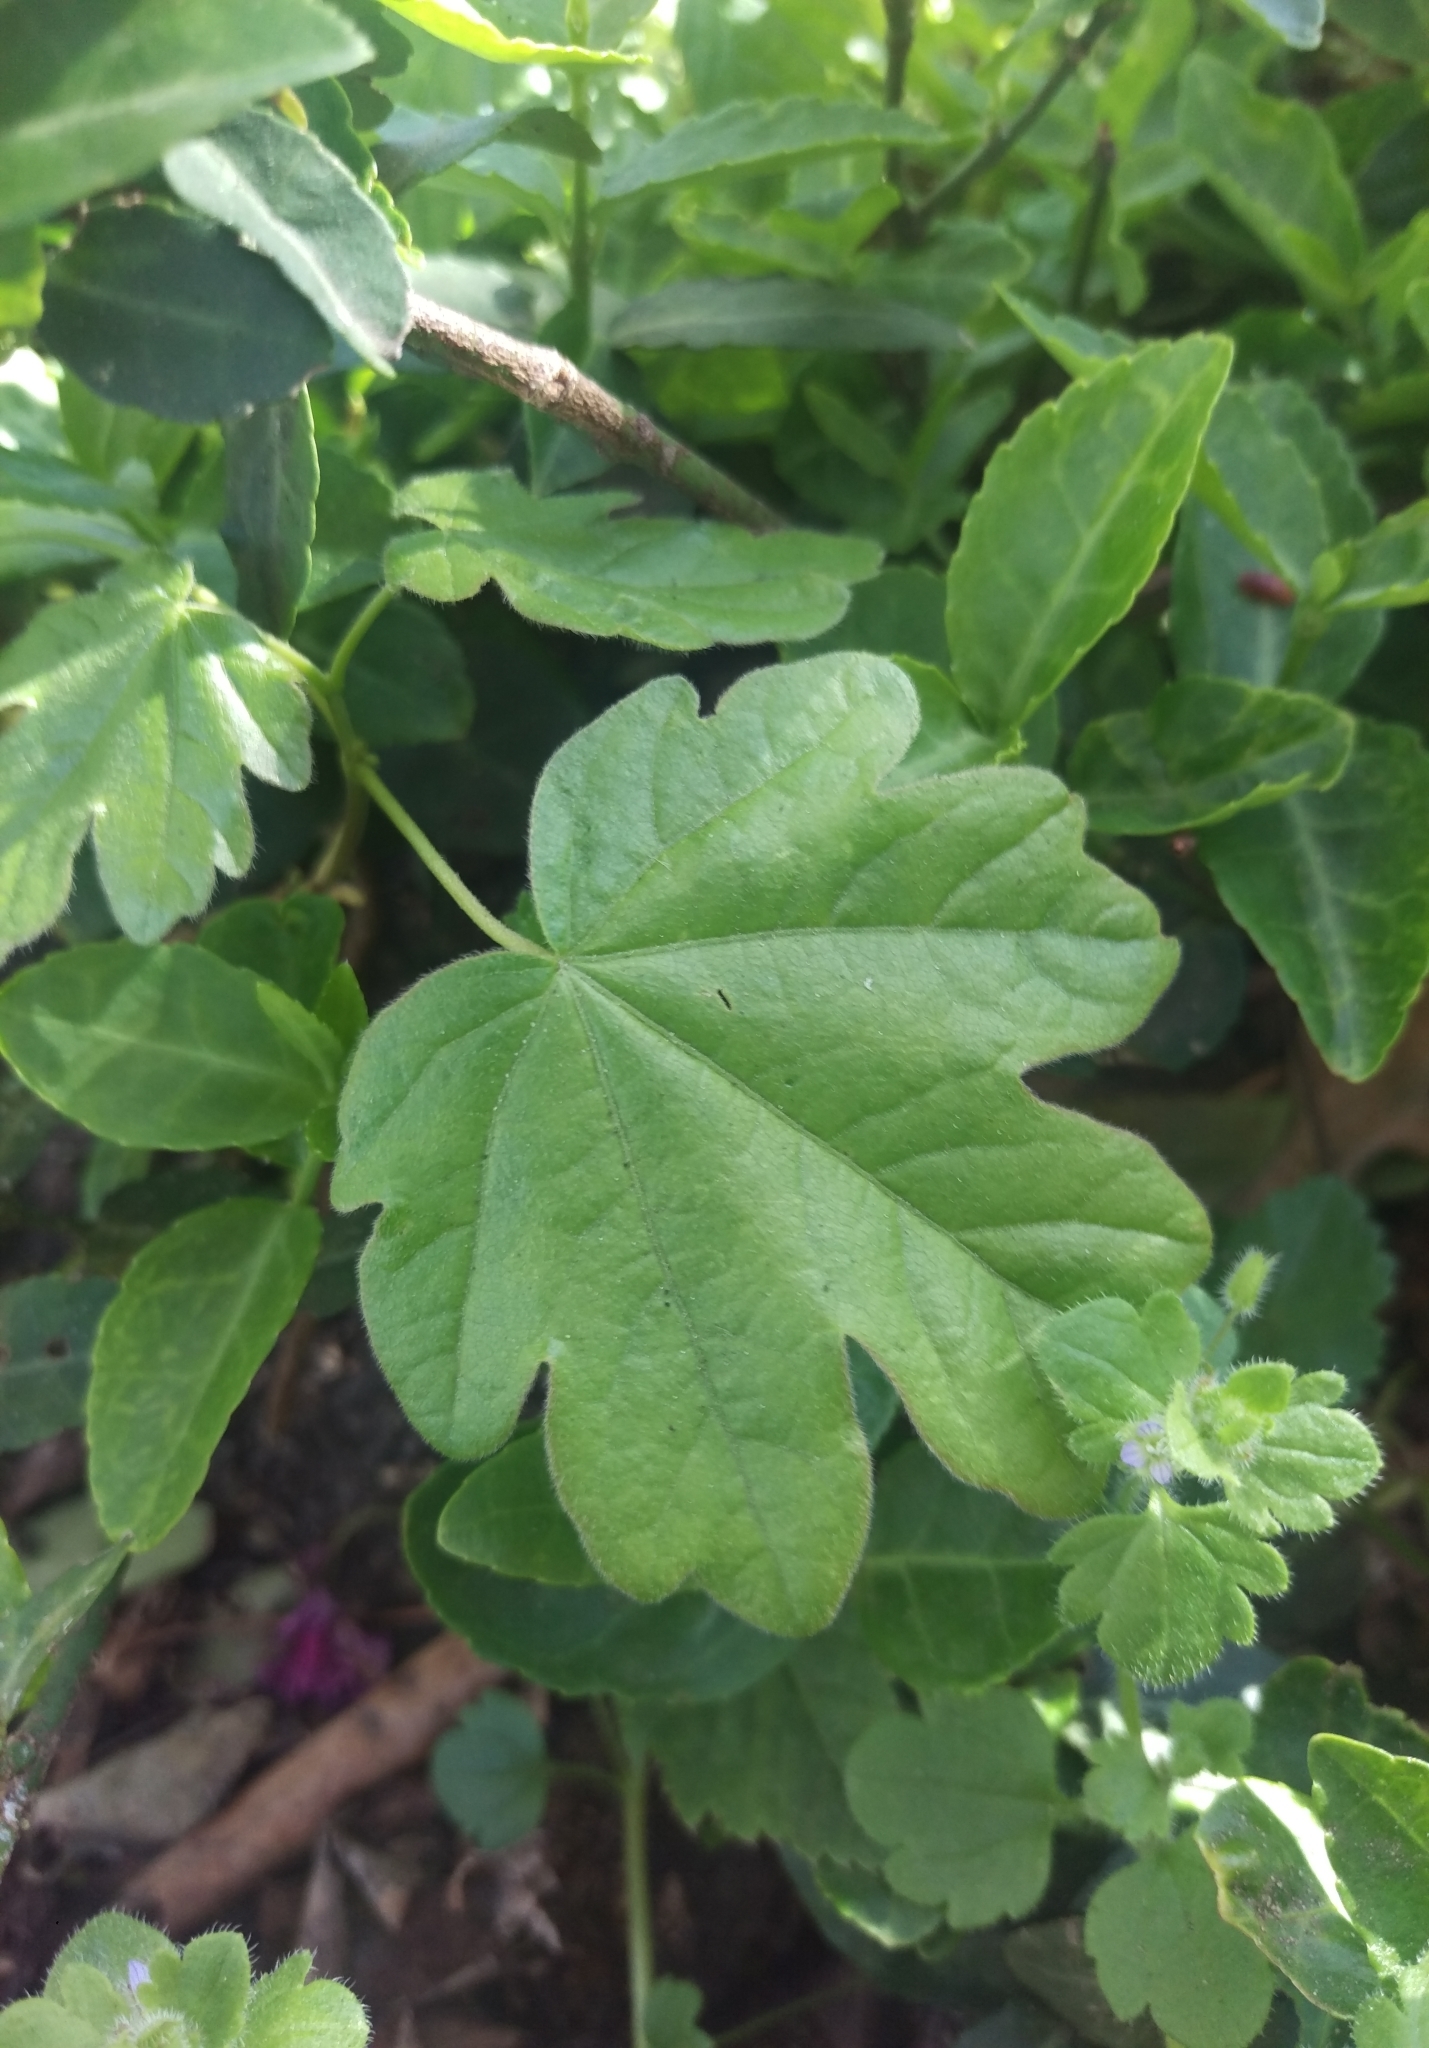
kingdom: Plantae
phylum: Tracheophyta
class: Magnoliopsida
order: Sapindales
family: Sapindaceae
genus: Acer
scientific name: Acer campestre
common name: Field maple
